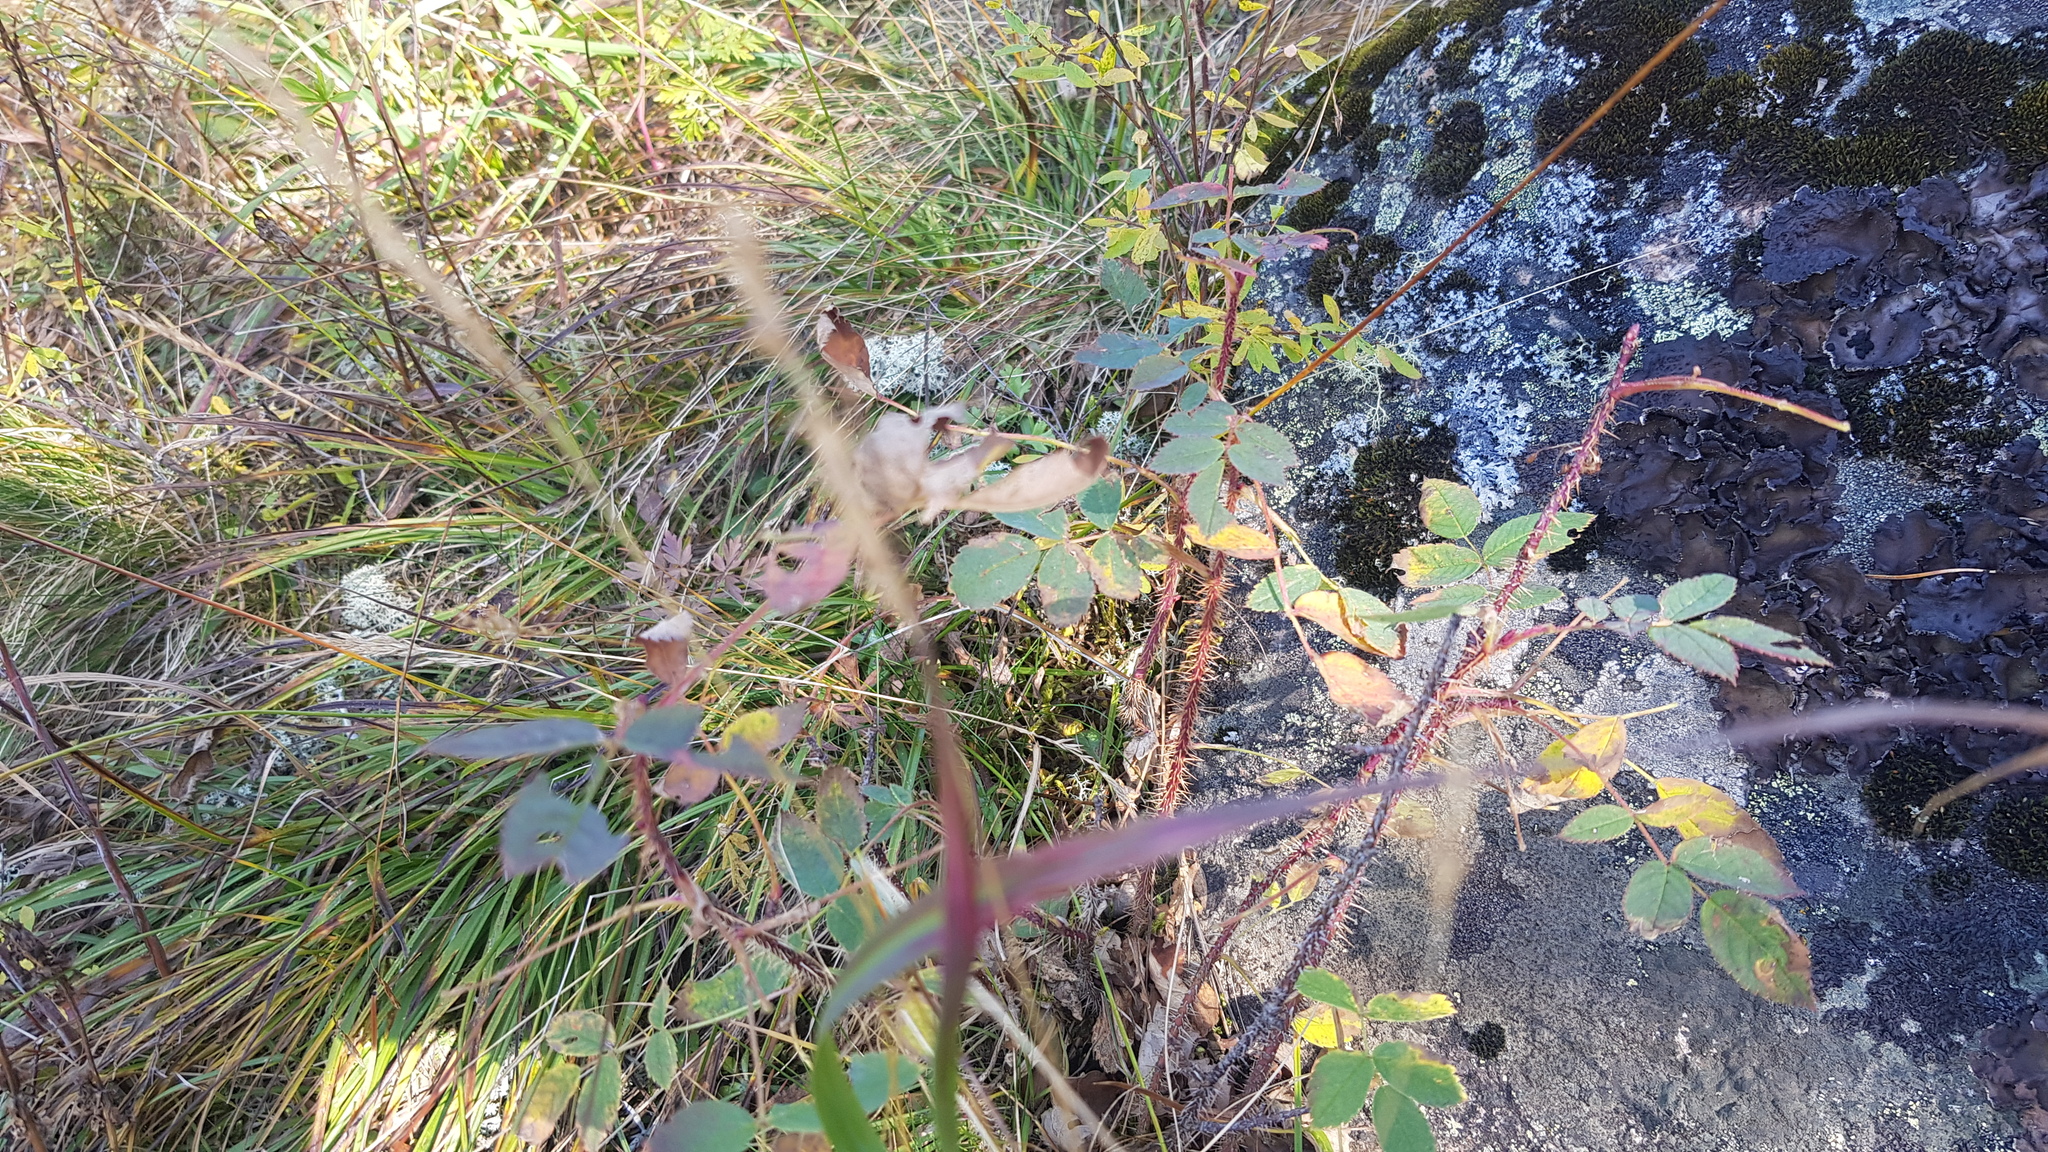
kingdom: Plantae
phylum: Tracheophyta
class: Magnoliopsida
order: Rosales
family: Rosaceae
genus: Rosa
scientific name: Rosa acicularis
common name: Prickly rose
